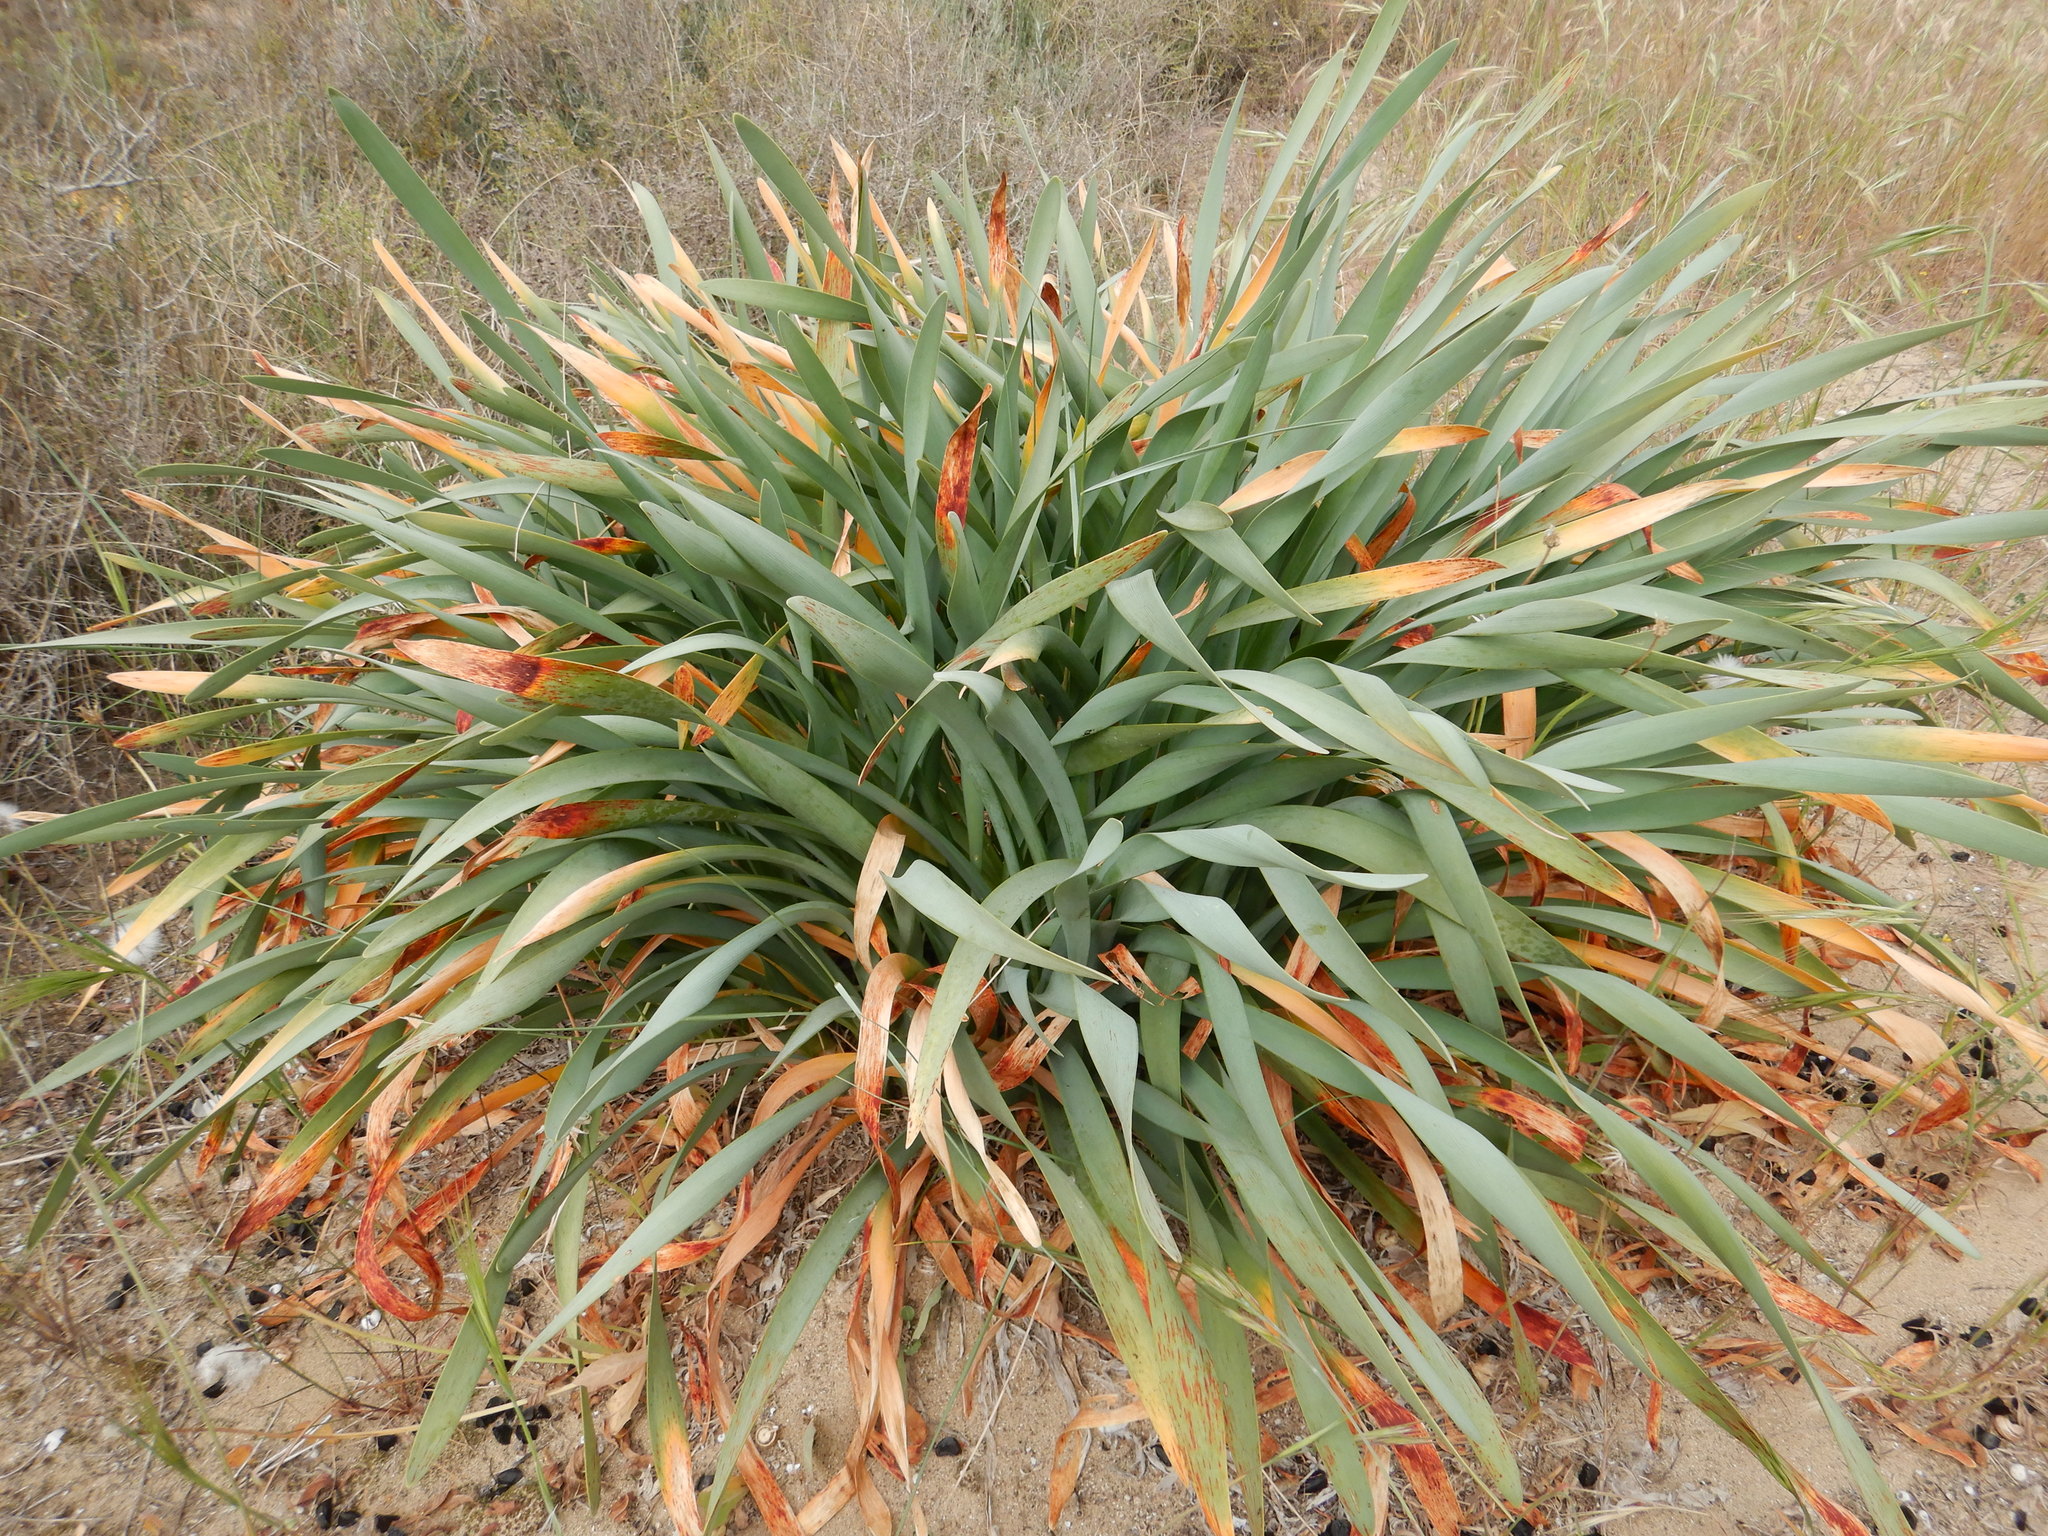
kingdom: Plantae
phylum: Tracheophyta
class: Liliopsida
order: Asparagales
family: Amaryllidaceae
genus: Pancratium
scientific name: Pancratium maritimum
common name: Sea-daffodil
